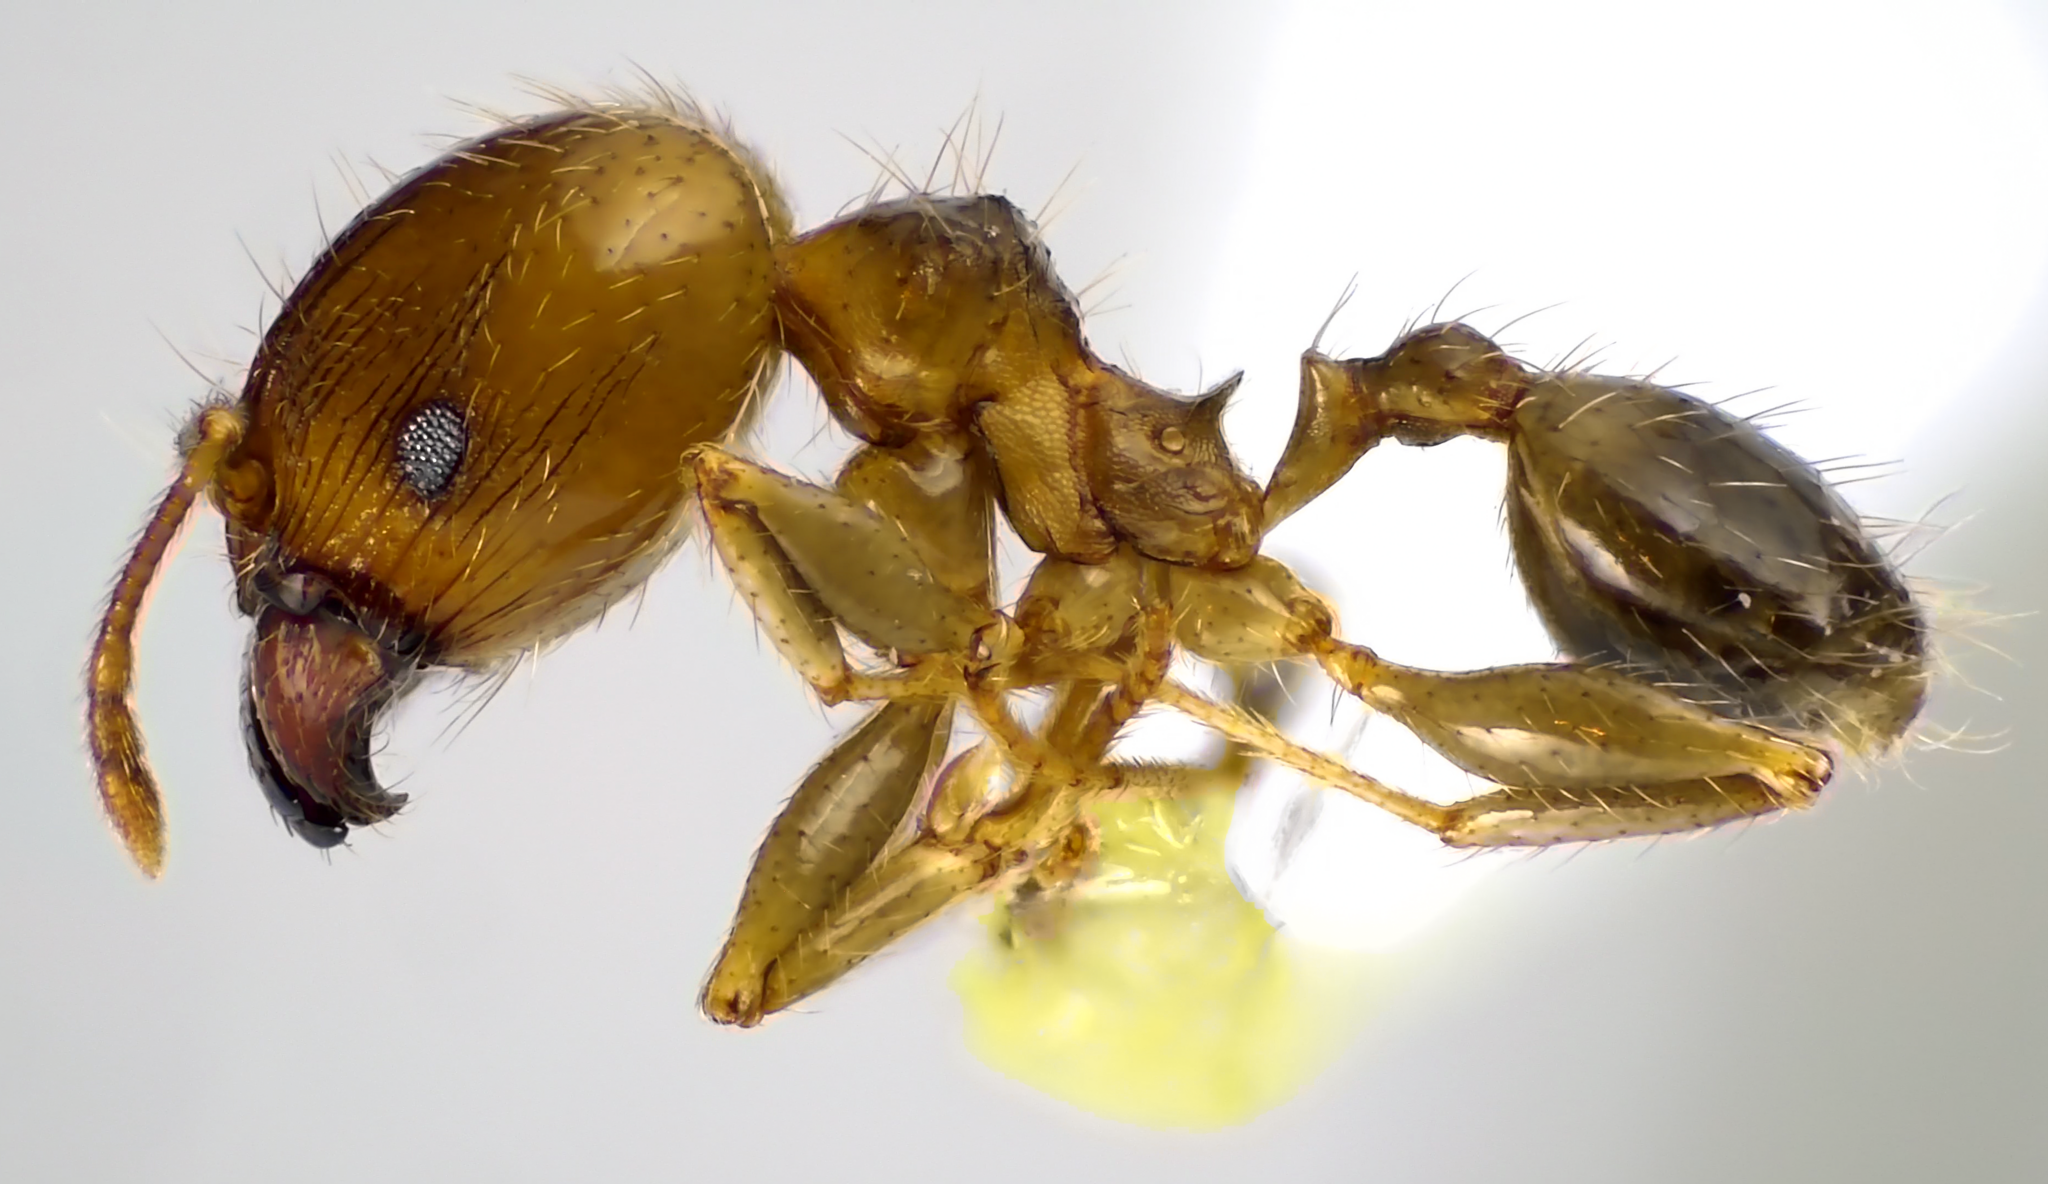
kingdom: Animalia
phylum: Arthropoda
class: Insecta
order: Hymenoptera
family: Formicidae
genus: Pheidole
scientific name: Pheidole megacephala
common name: Bigheaded ant
